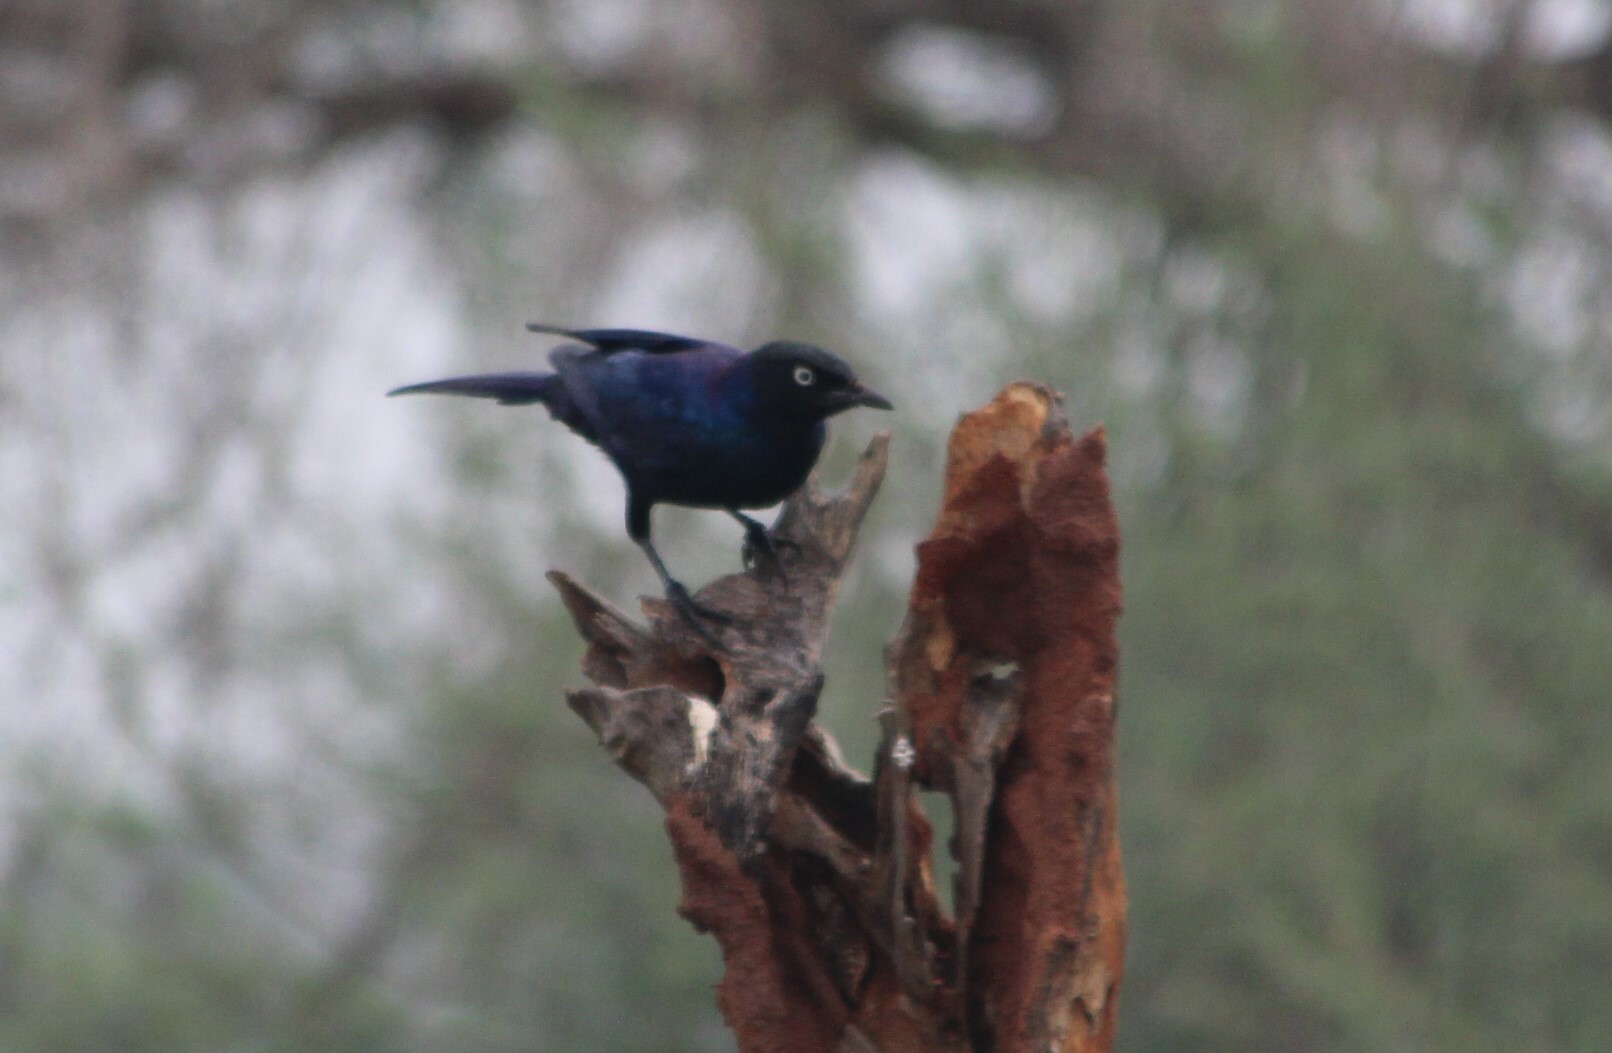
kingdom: Animalia
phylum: Chordata
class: Aves
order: Passeriformes
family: Sturnidae
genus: Lamprotornis
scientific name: Lamprotornis purpuroptera
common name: Rüppell's starling
